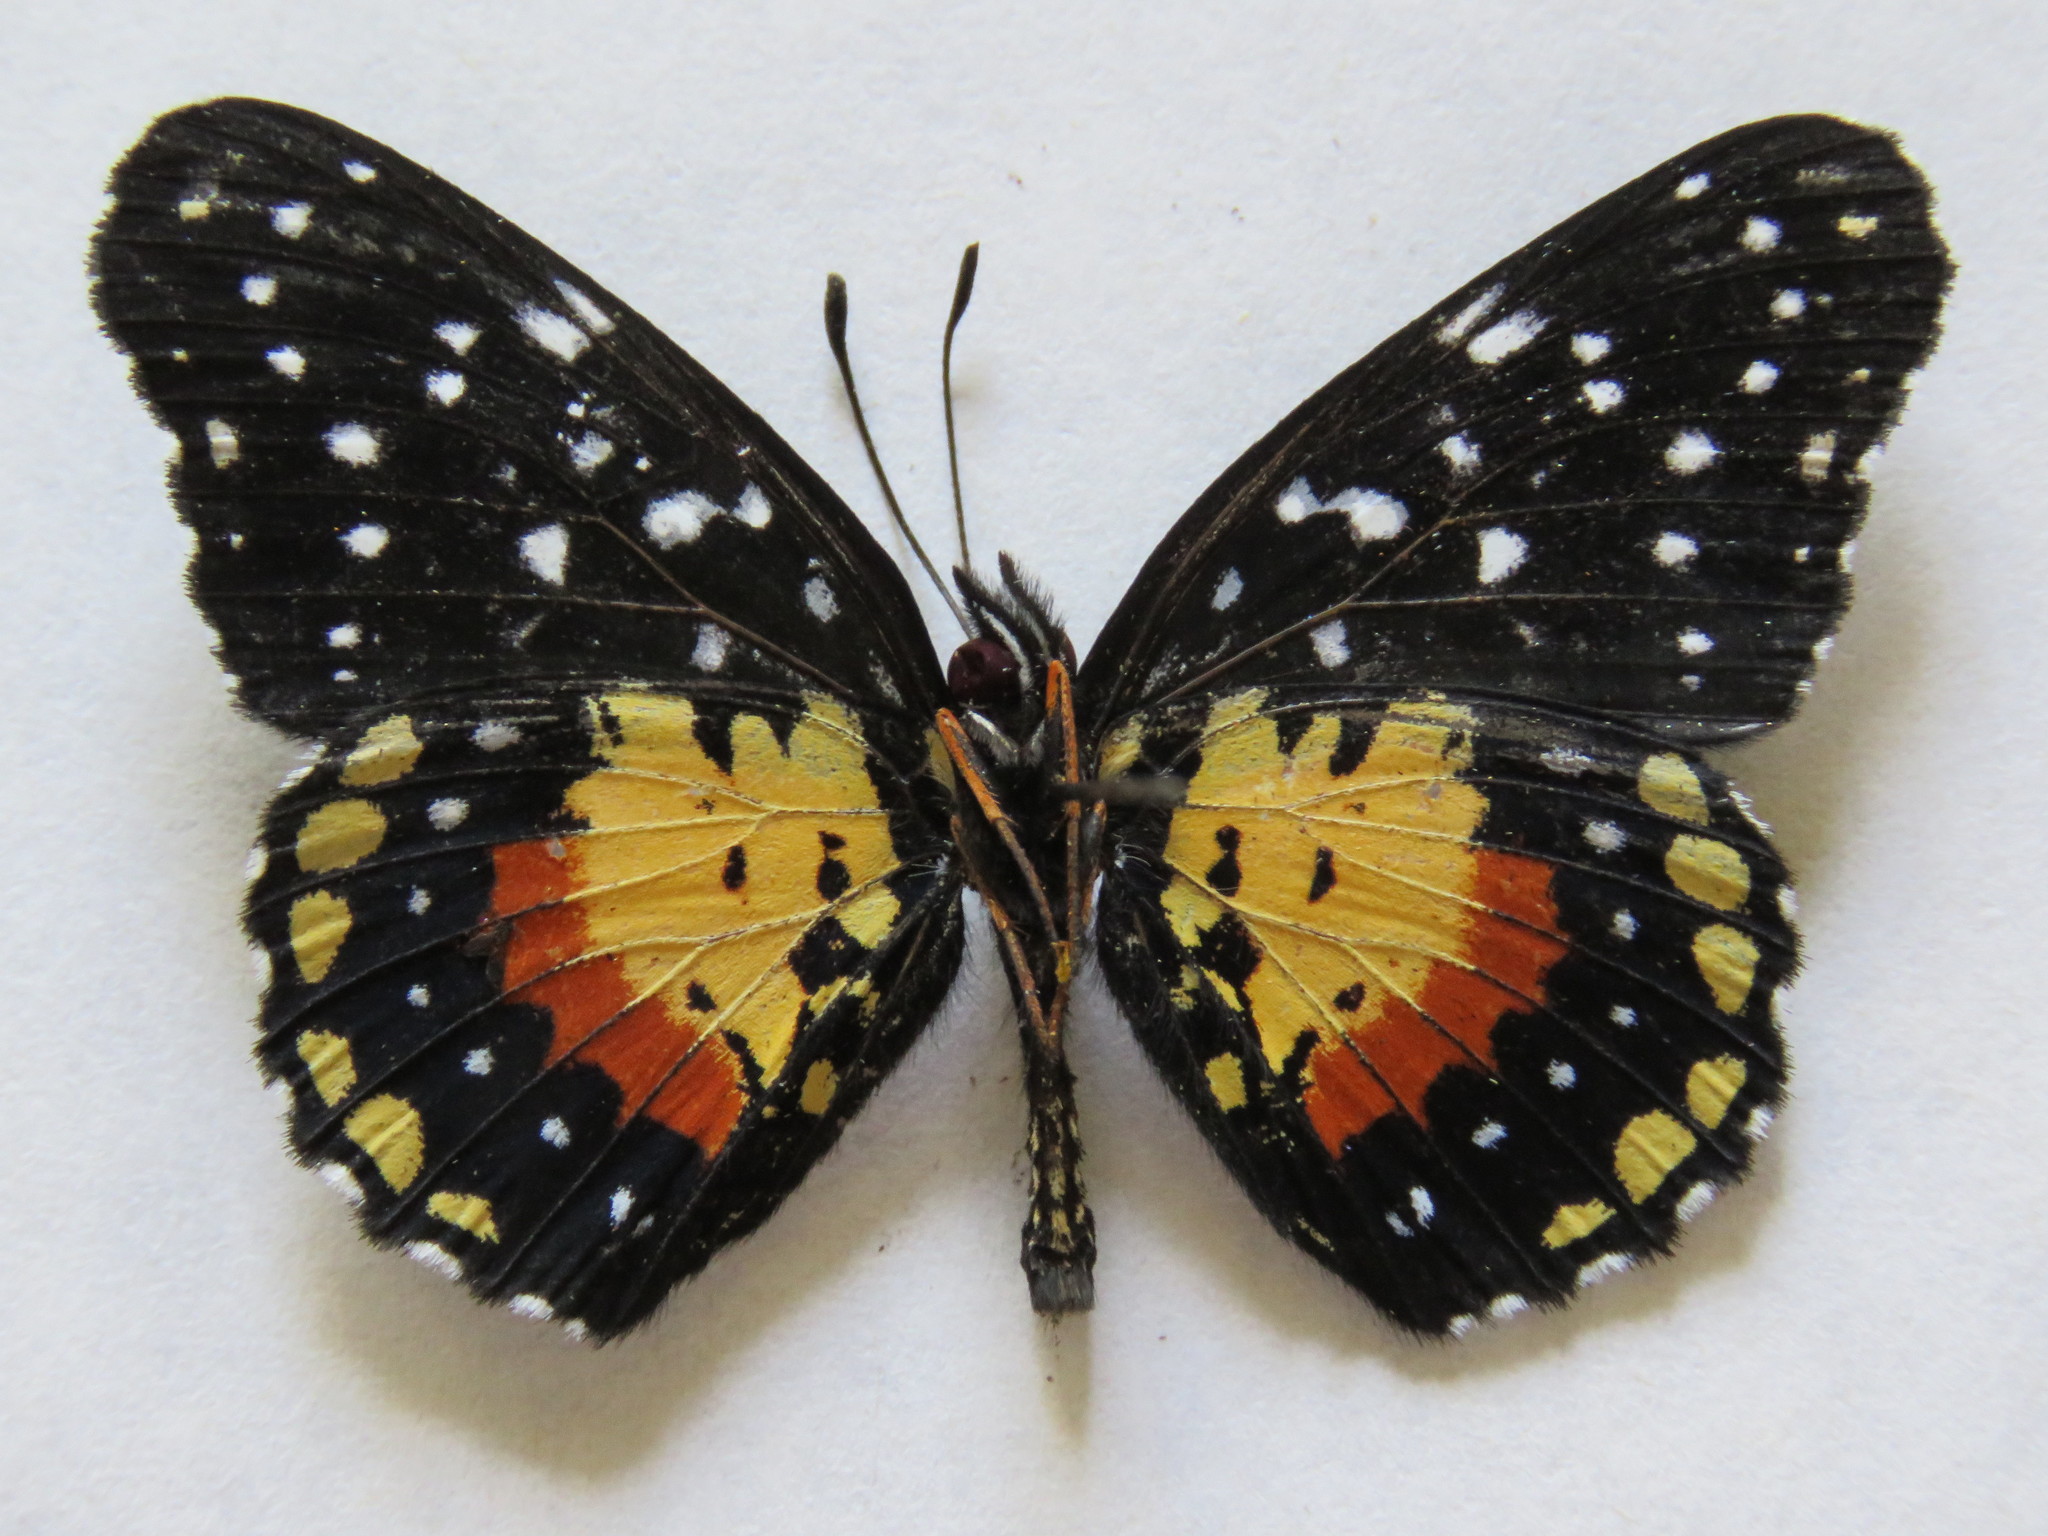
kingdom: Animalia
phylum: Arthropoda
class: Insecta
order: Lepidoptera
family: Nymphalidae
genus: Chlosyne
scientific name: Chlosyne janais
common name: Crimson patch
